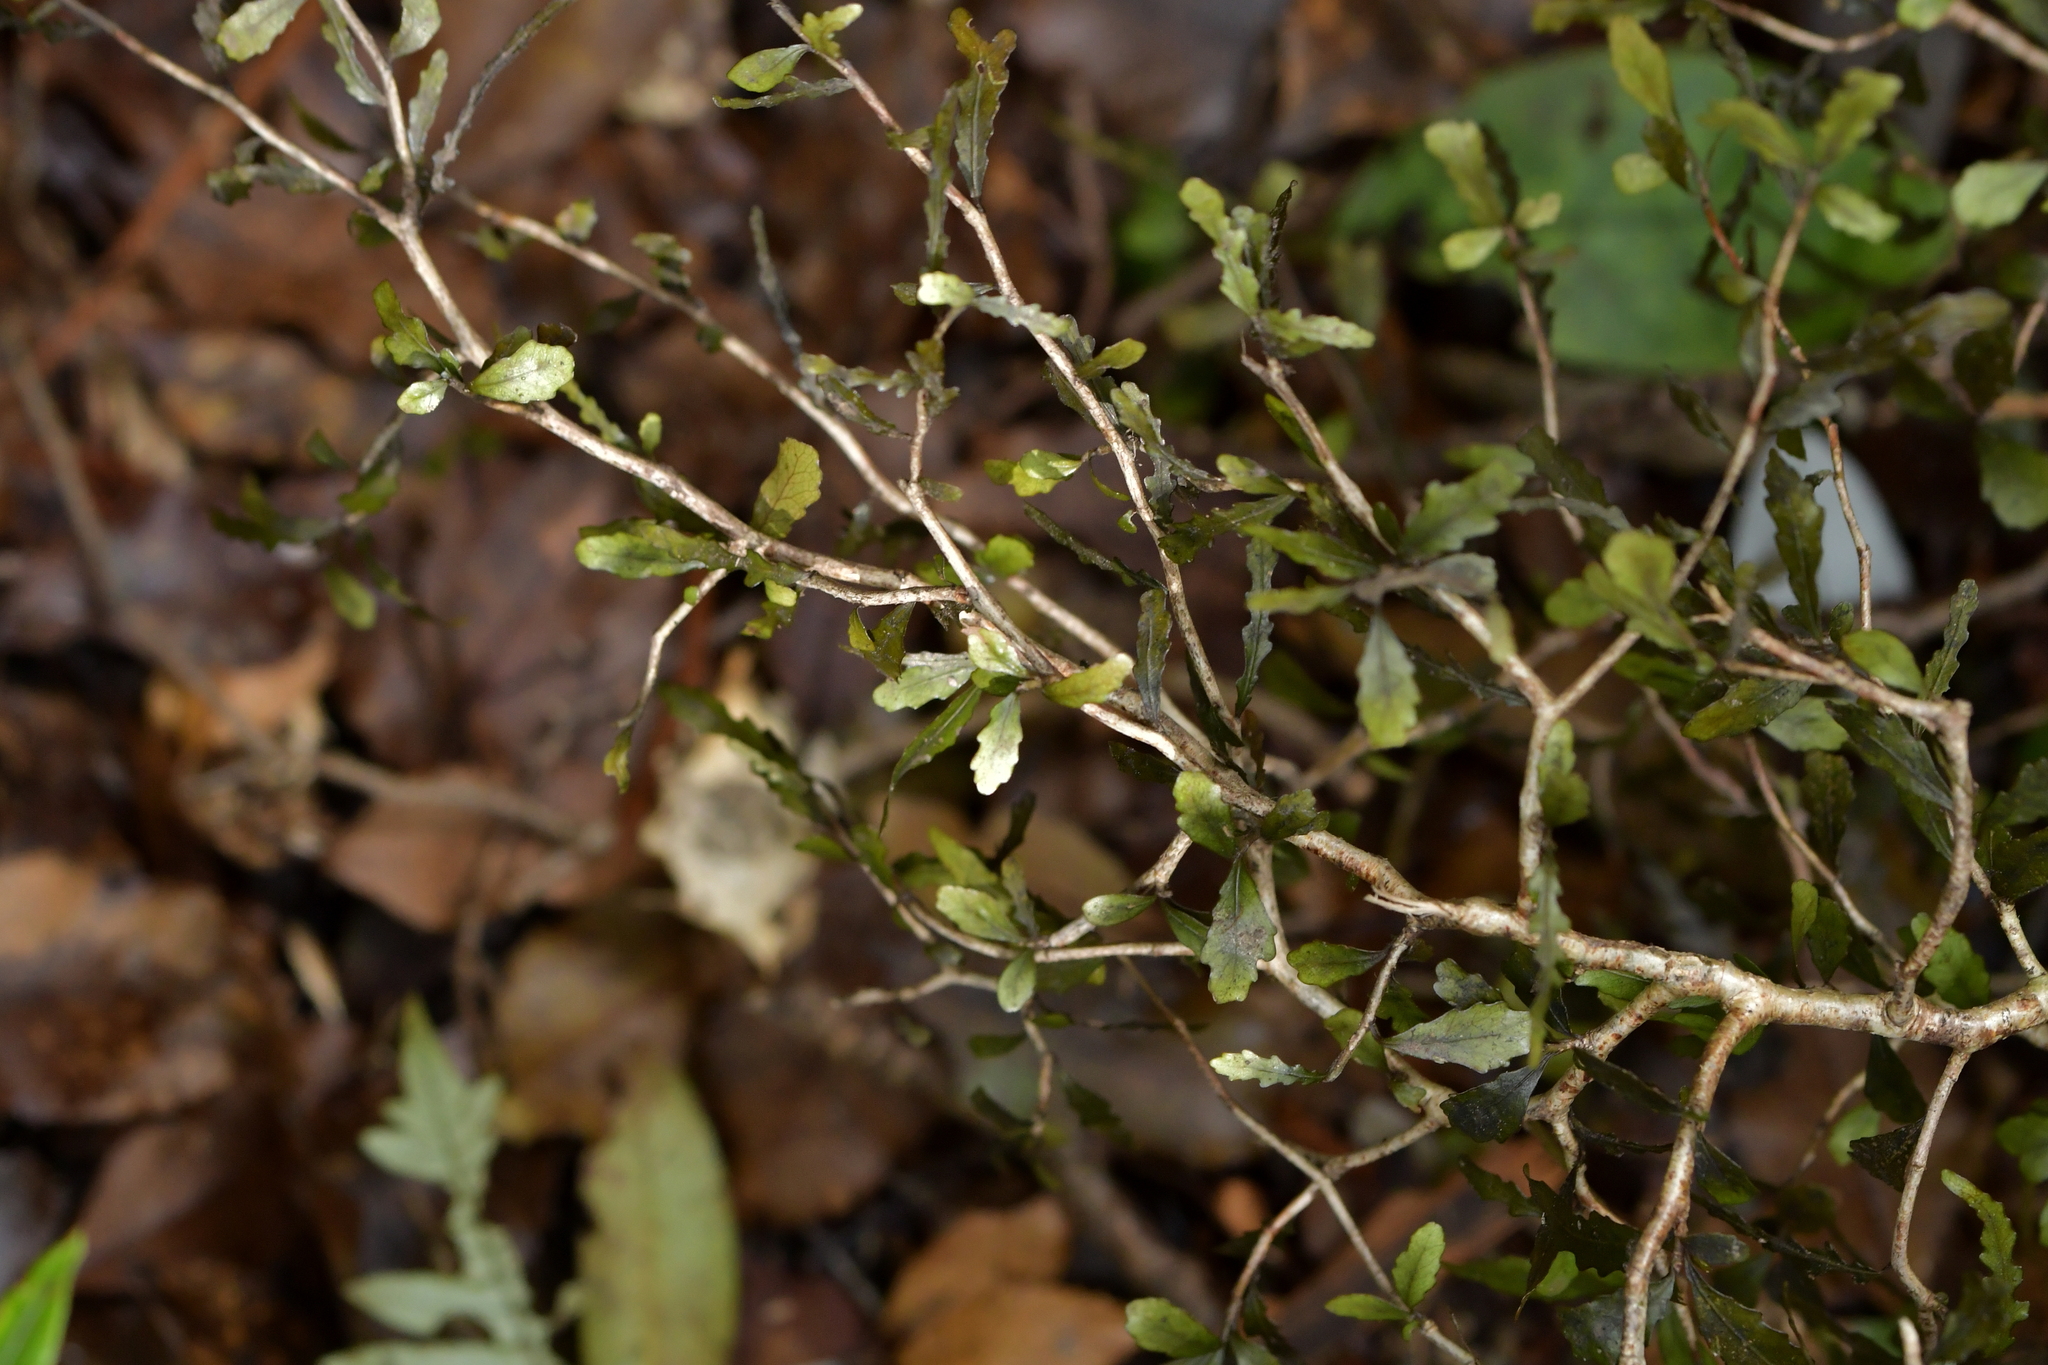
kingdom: Plantae
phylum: Tracheophyta
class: Magnoliopsida
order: Oxalidales
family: Elaeocarpaceae
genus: Elaeocarpus
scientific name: Elaeocarpus hookerianus
